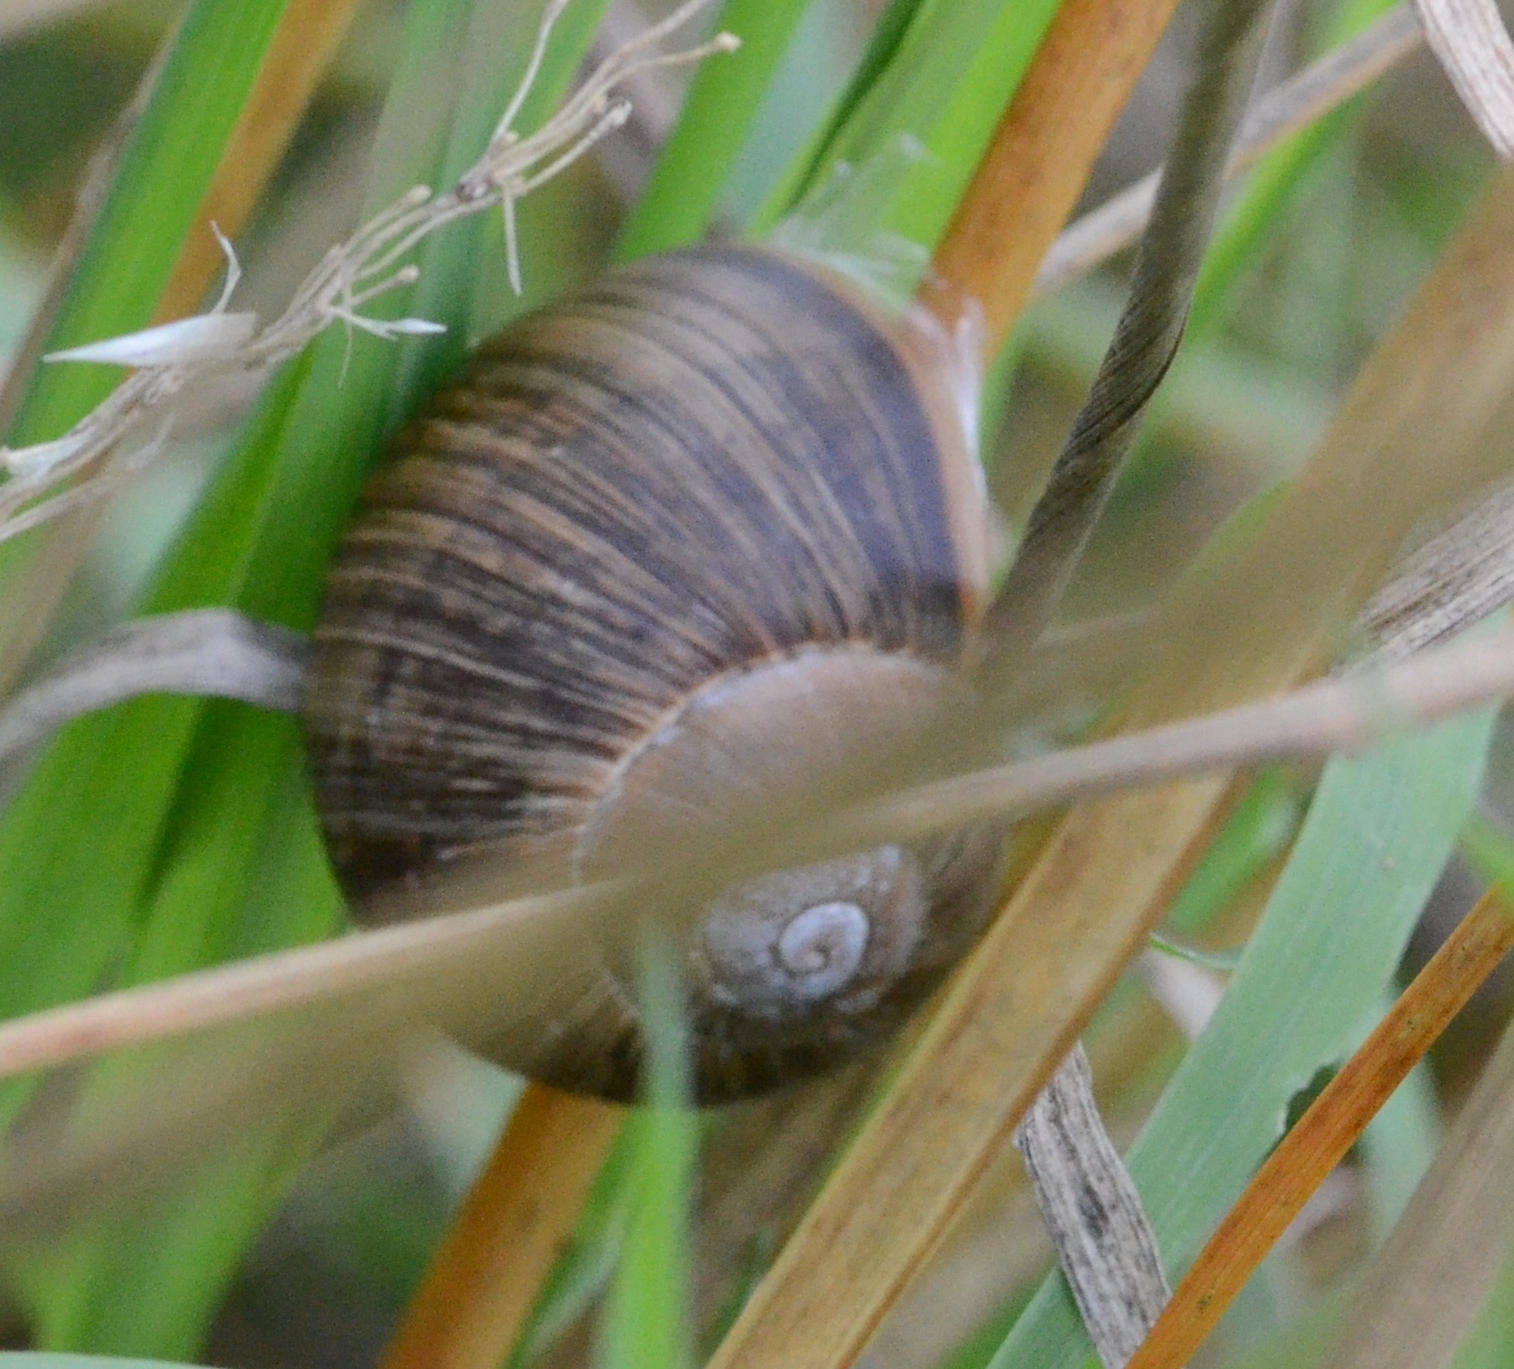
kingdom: Animalia
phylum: Mollusca
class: Gastropoda
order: Stylommatophora
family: Helicidae
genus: Helix
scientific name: Helix pomatia
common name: Roman snail
